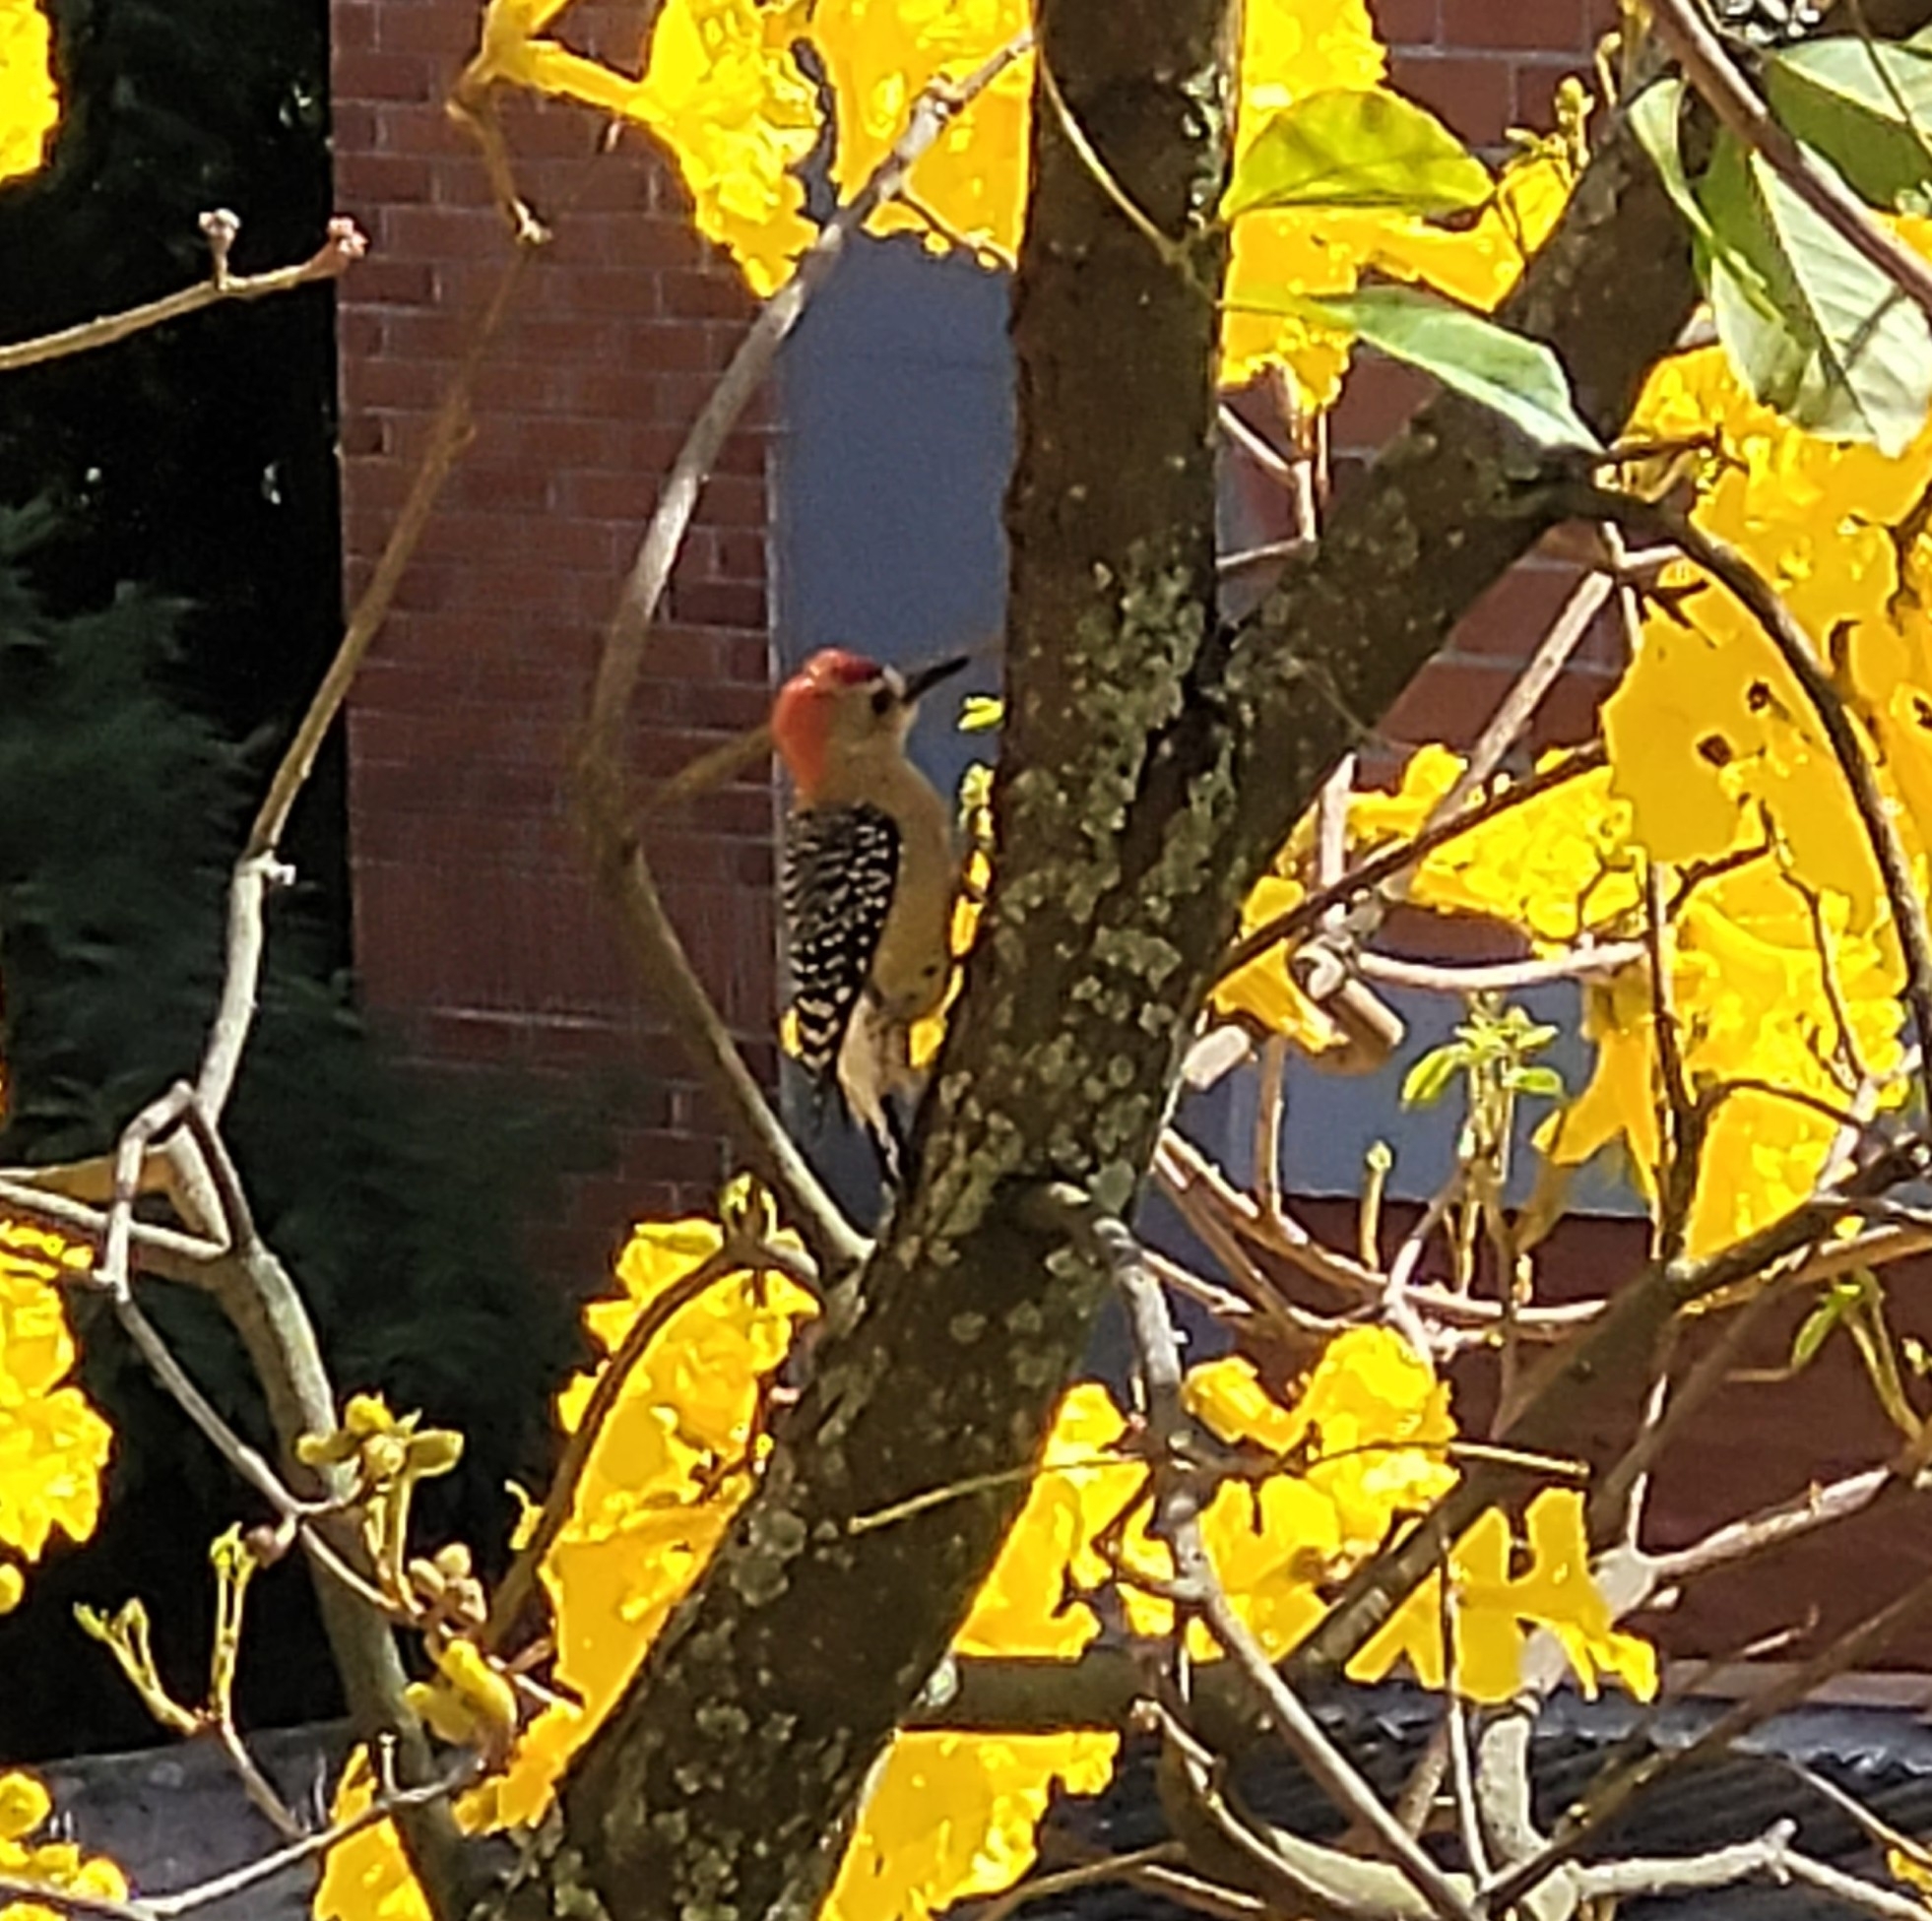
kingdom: Animalia
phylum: Chordata
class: Aves
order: Piciformes
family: Picidae
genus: Melanerpes
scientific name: Melanerpes rubricapillus
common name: Red-crowned woodpecker
